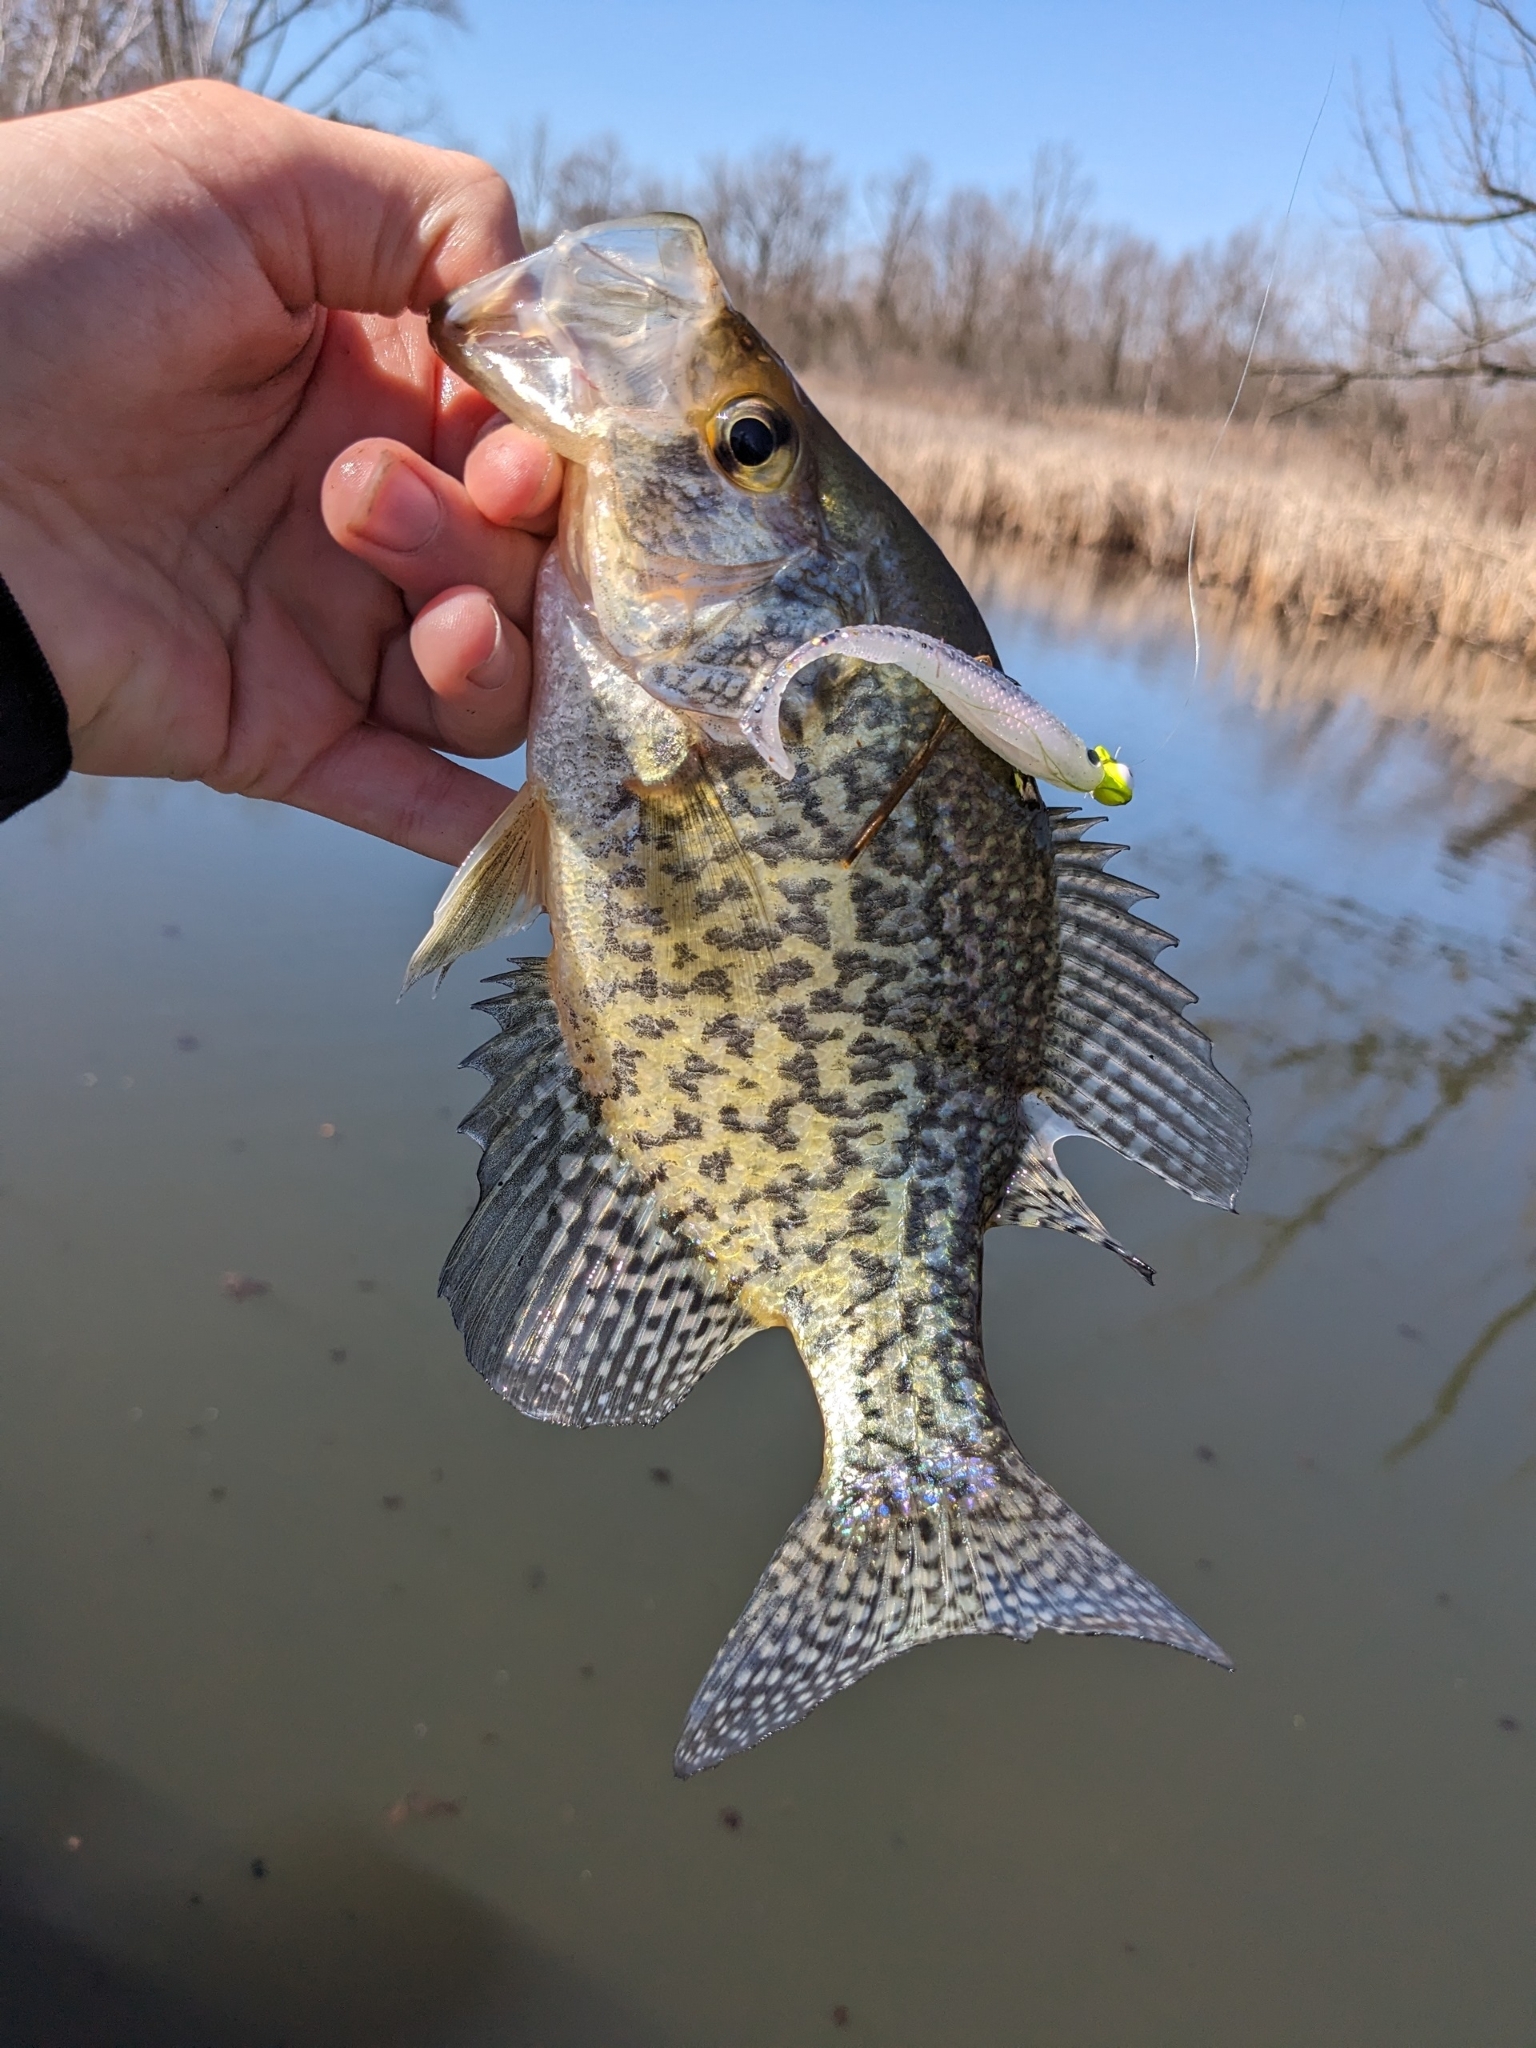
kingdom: Animalia
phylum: Chordata
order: Perciformes
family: Centrarchidae
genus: Pomoxis
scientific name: Pomoxis nigromaculatus
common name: Black crappie
